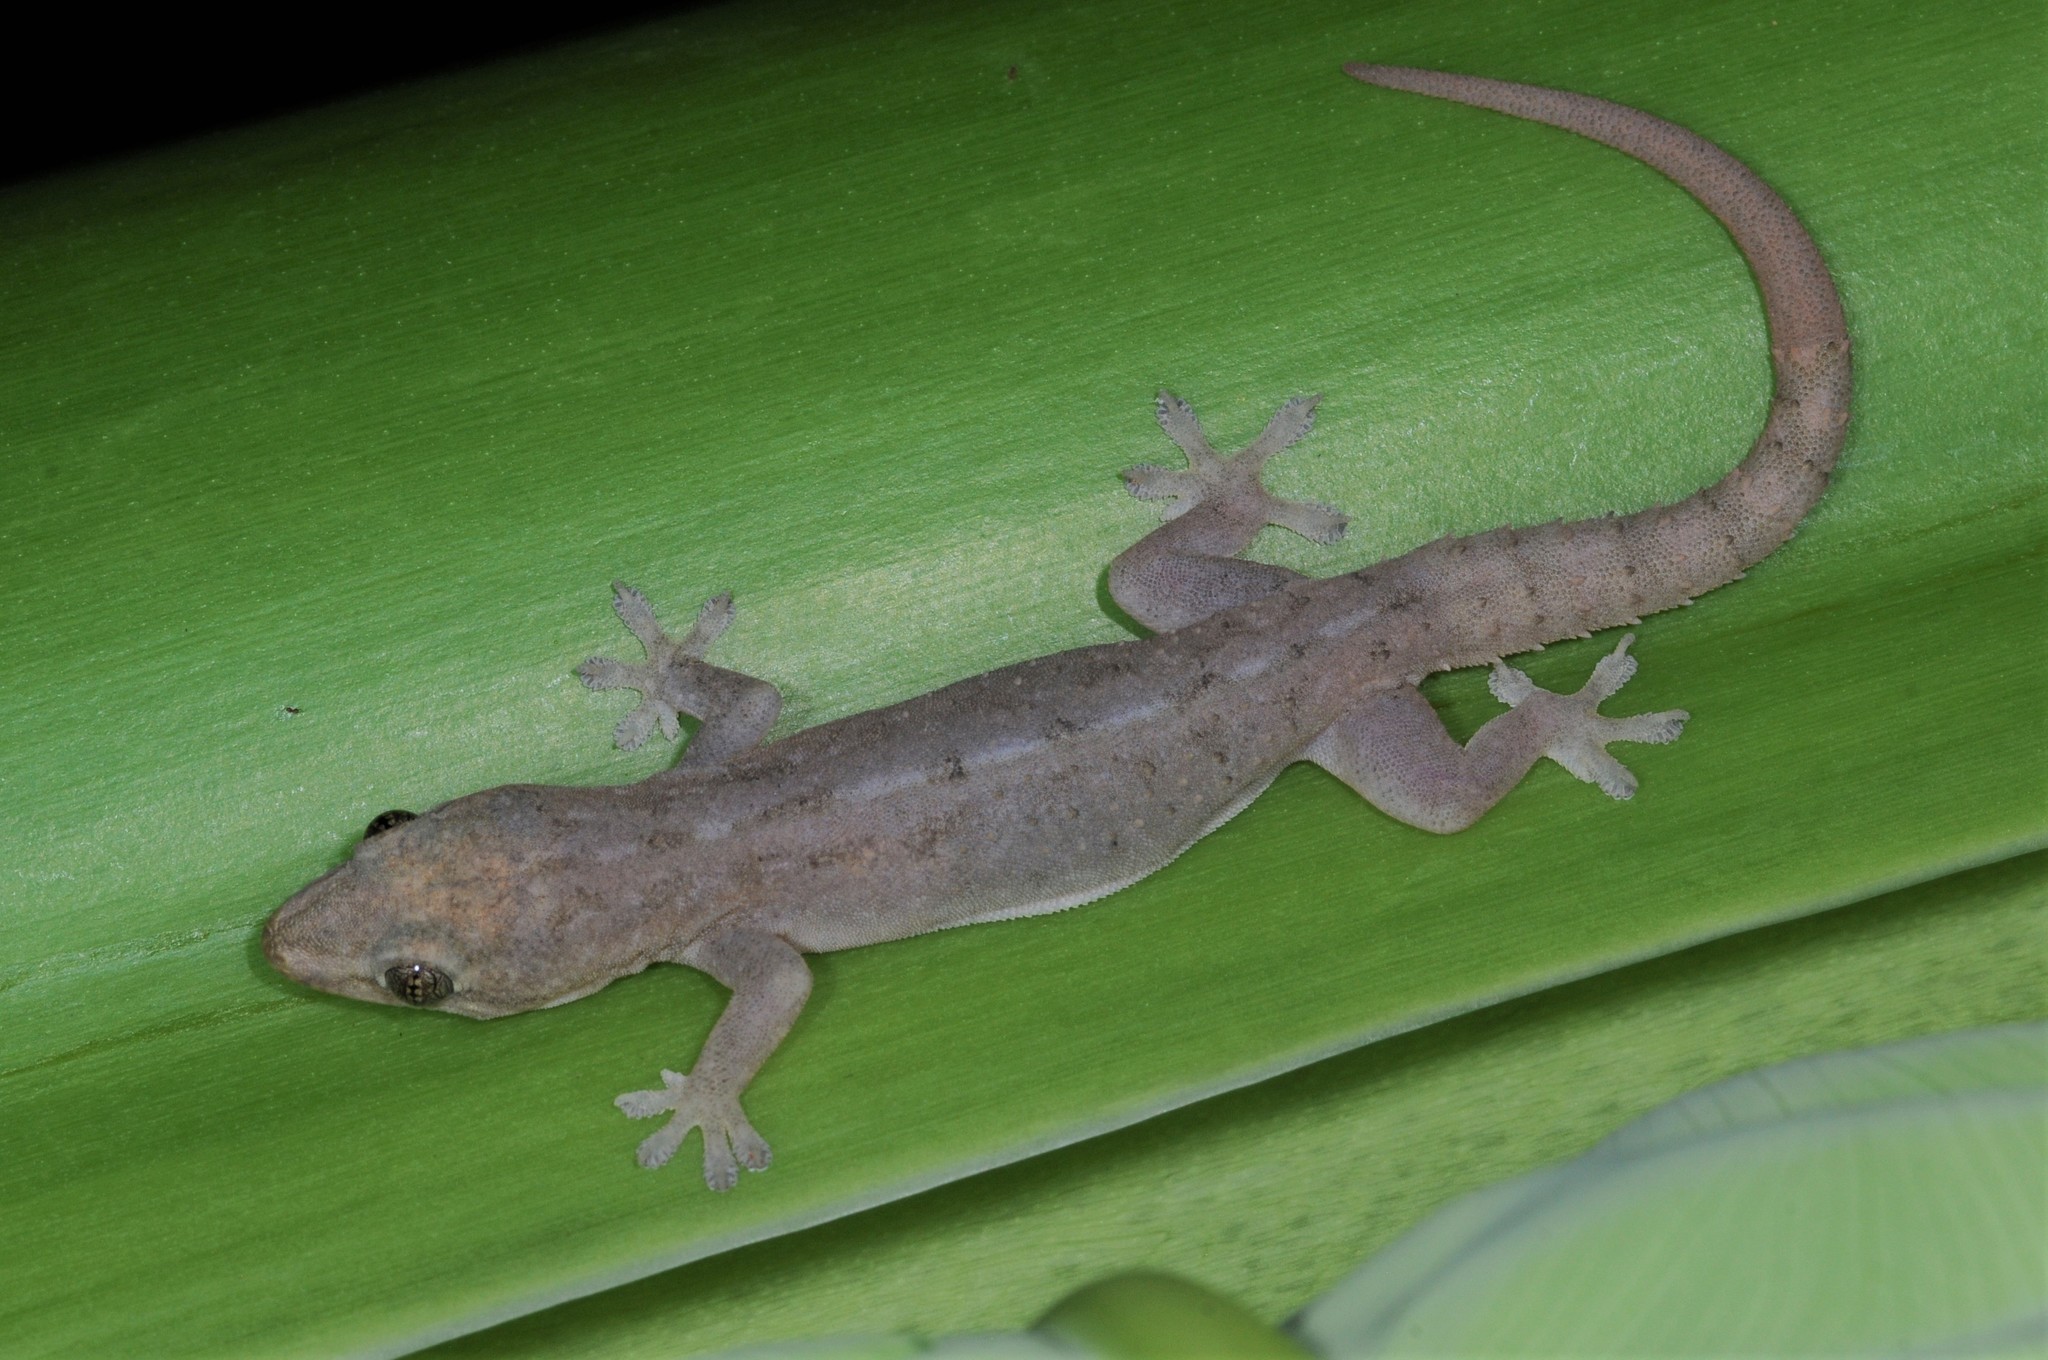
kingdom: Animalia
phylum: Chordata
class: Squamata
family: Gekkonidae
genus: Hemidactylus
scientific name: Hemidactylus frenatus
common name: Common house gecko
